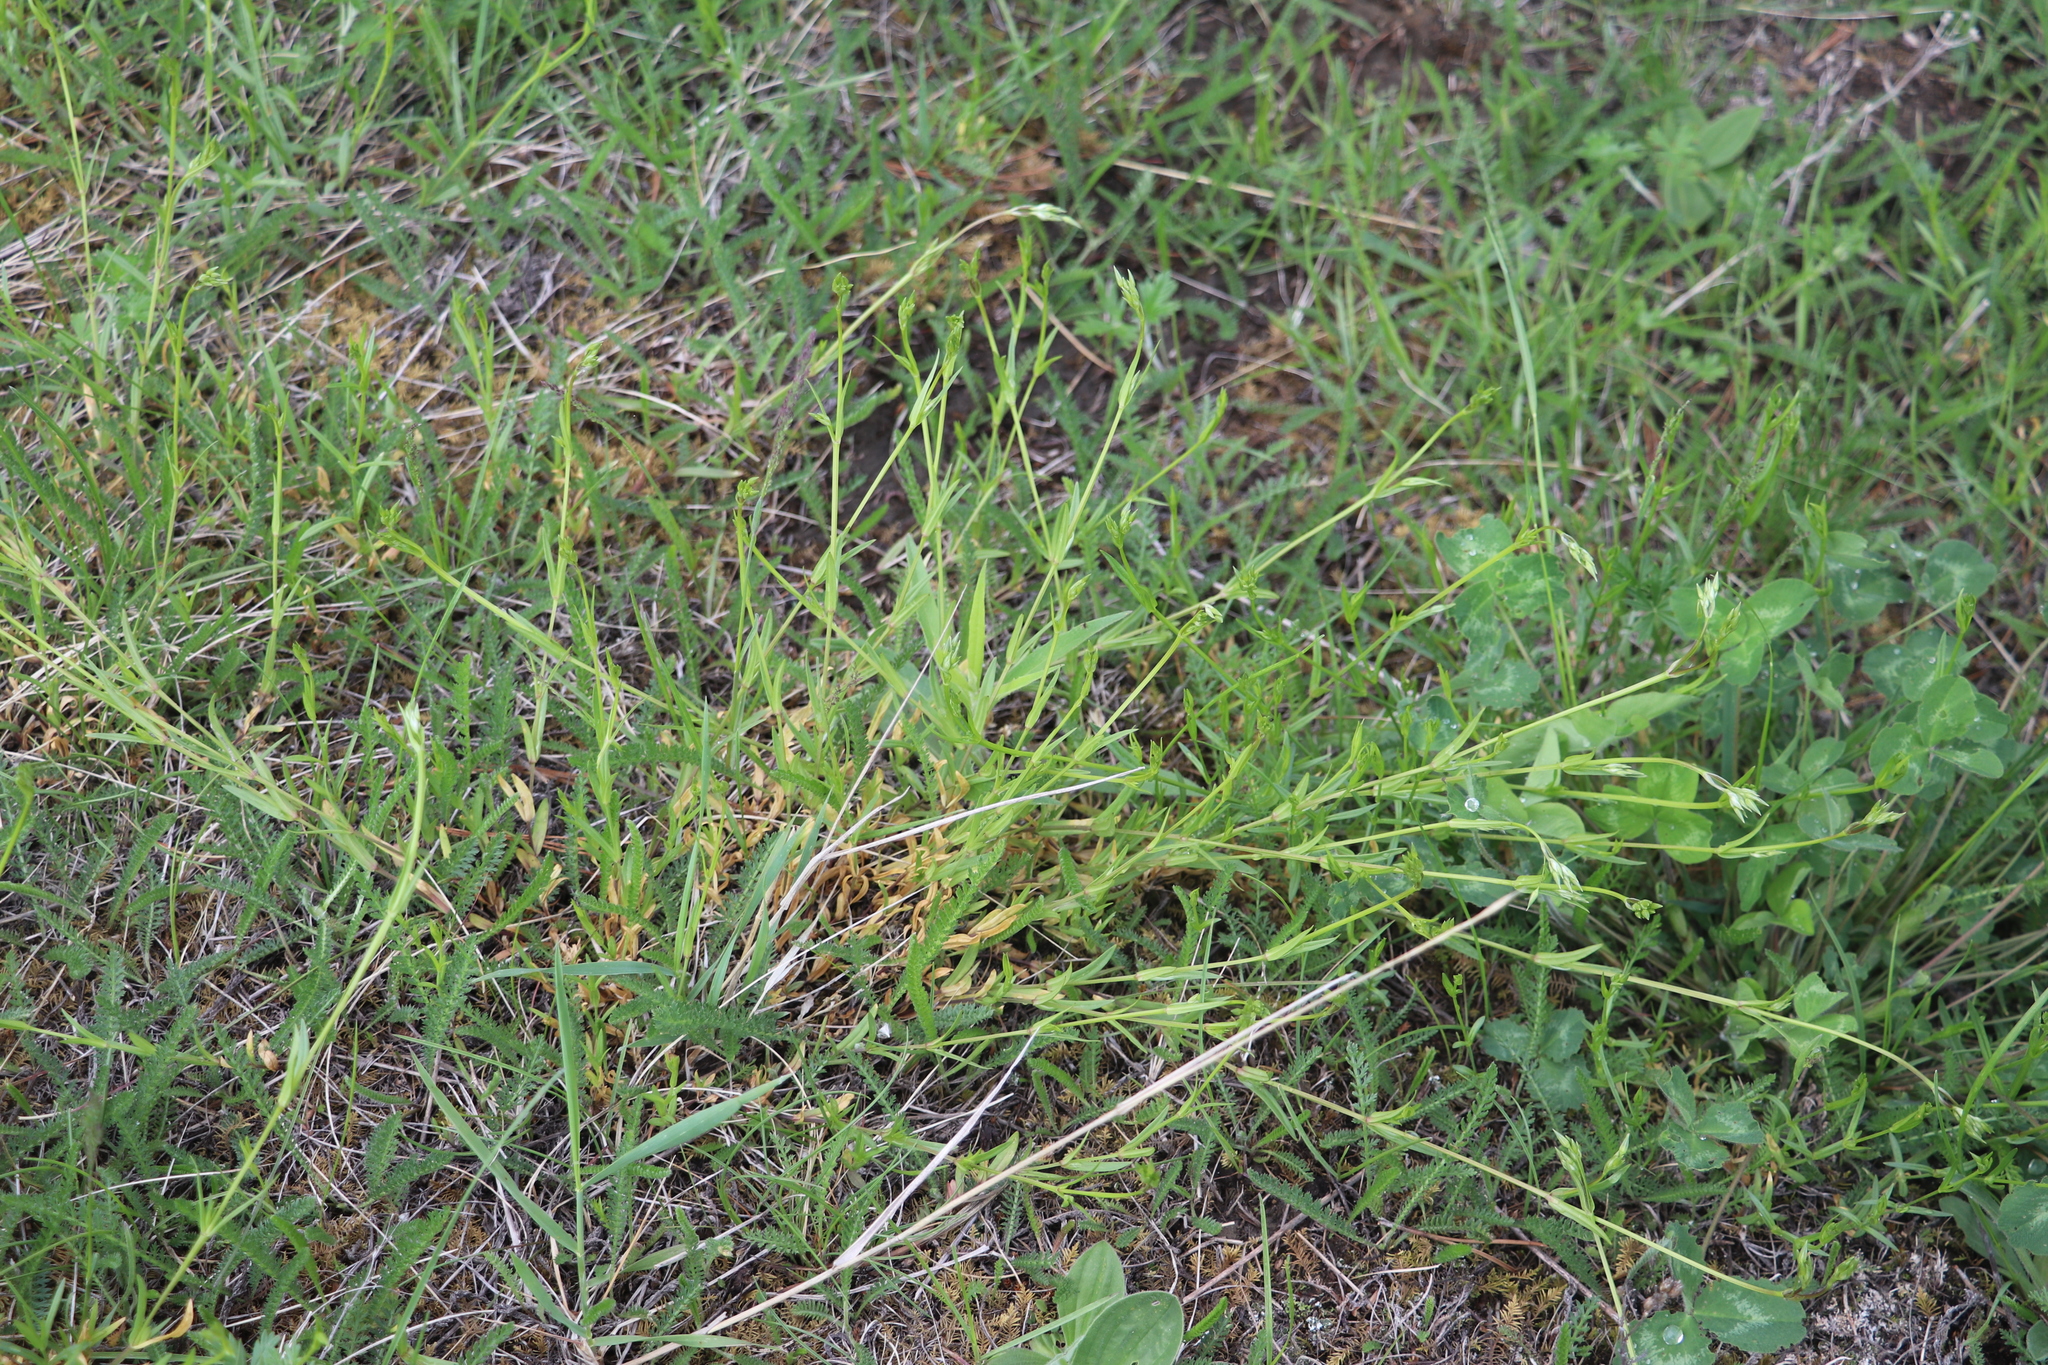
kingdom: Plantae
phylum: Tracheophyta
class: Magnoliopsida
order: Caryophyllales
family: Caryophyllaceae
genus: Stellaria
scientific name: Stellaria graminea
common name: Grass-like starwort
